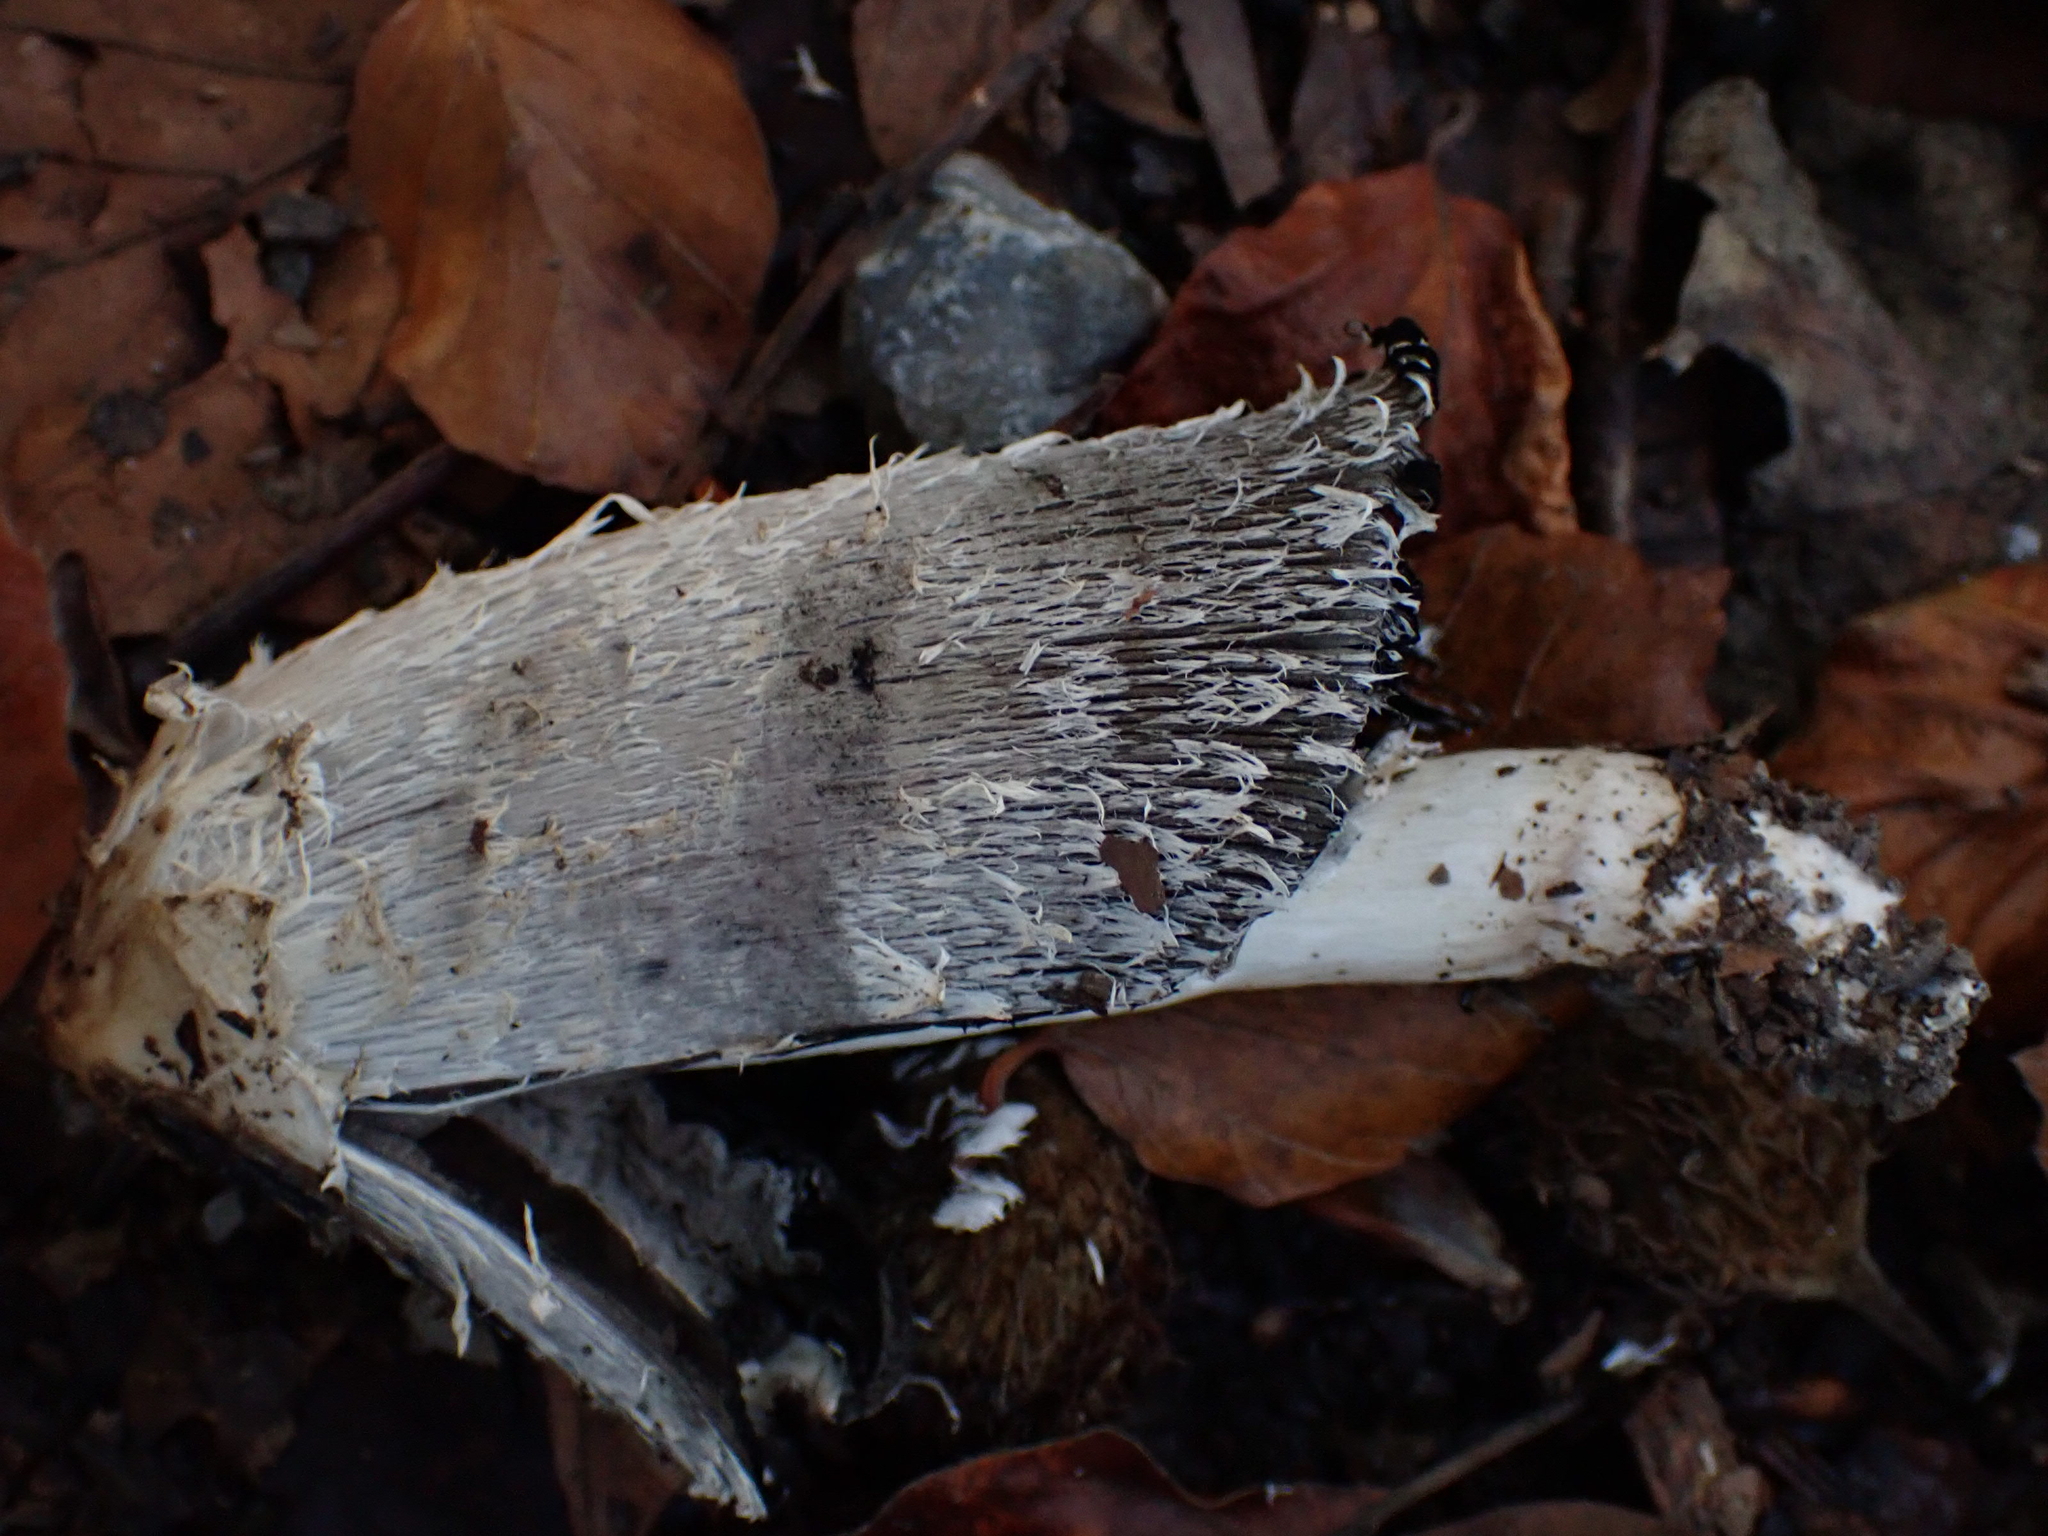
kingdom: Fungi
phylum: Basidiomycota
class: Agaricomycetes
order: Agaricales
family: Agaricaceae
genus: Coprinus
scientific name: Coprinus comatus
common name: Lawyer's wig
